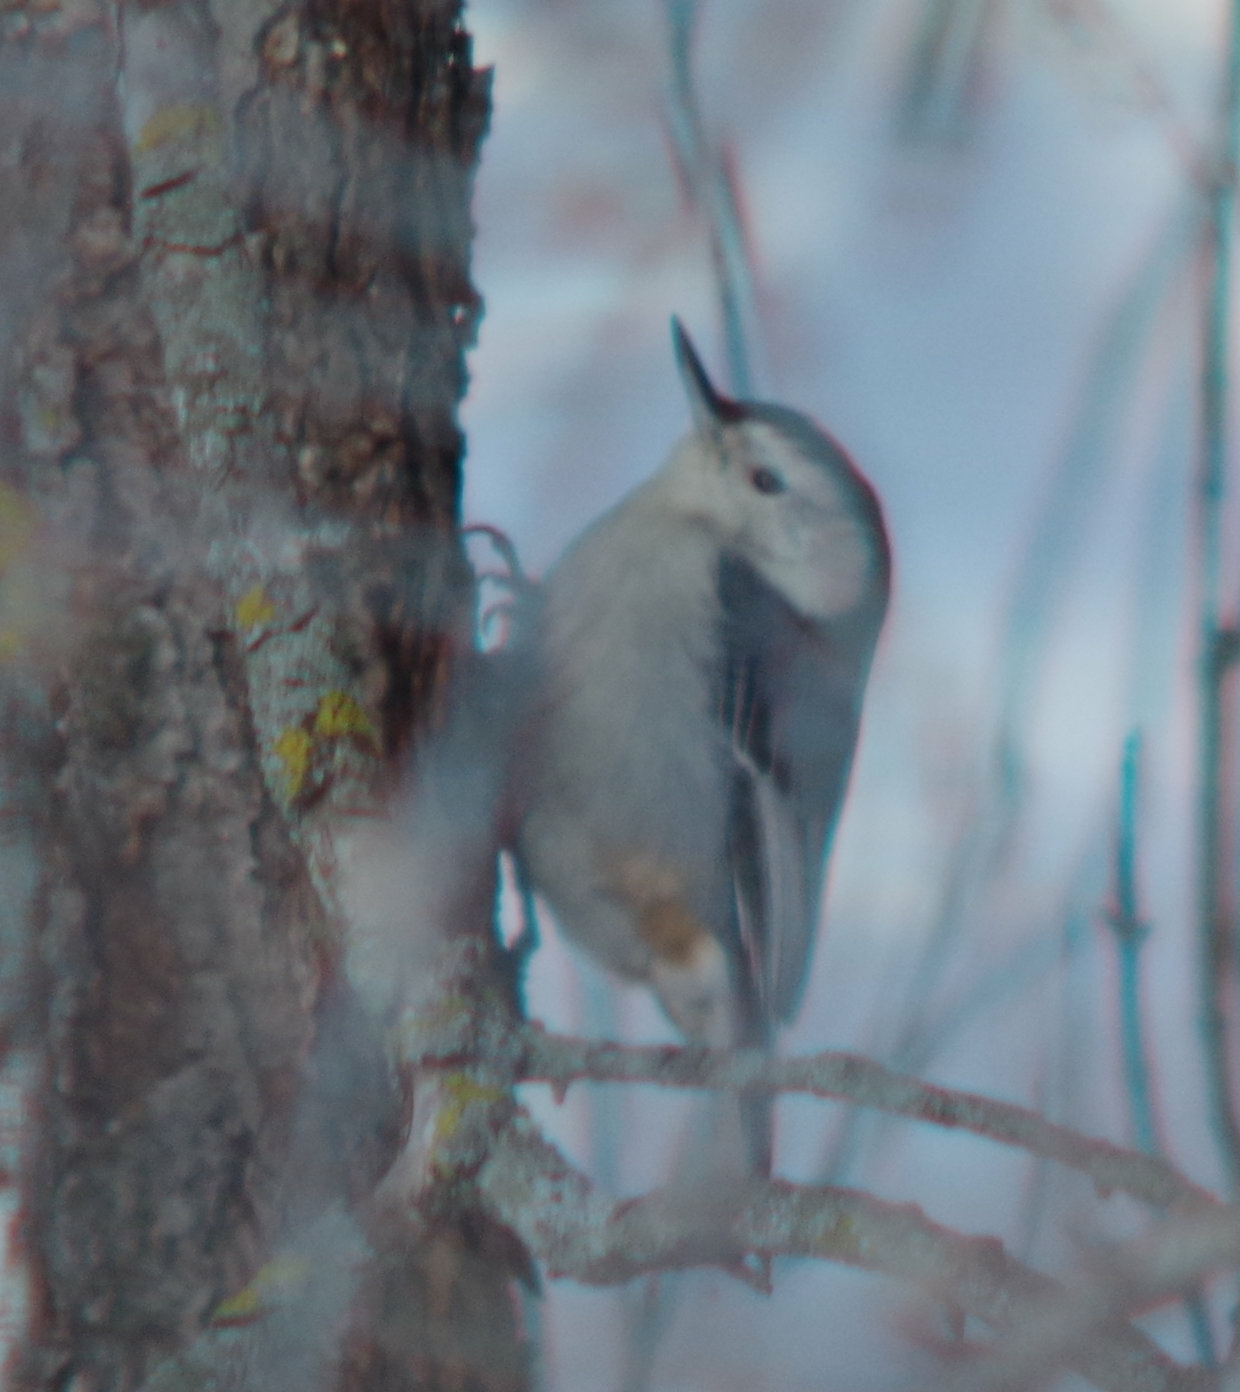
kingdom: Animalia
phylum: Chordata
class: Aves
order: Passeriformes
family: Sittidae
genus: Sitta
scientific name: Sitta carolinensis
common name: White-breasted nuthatch
